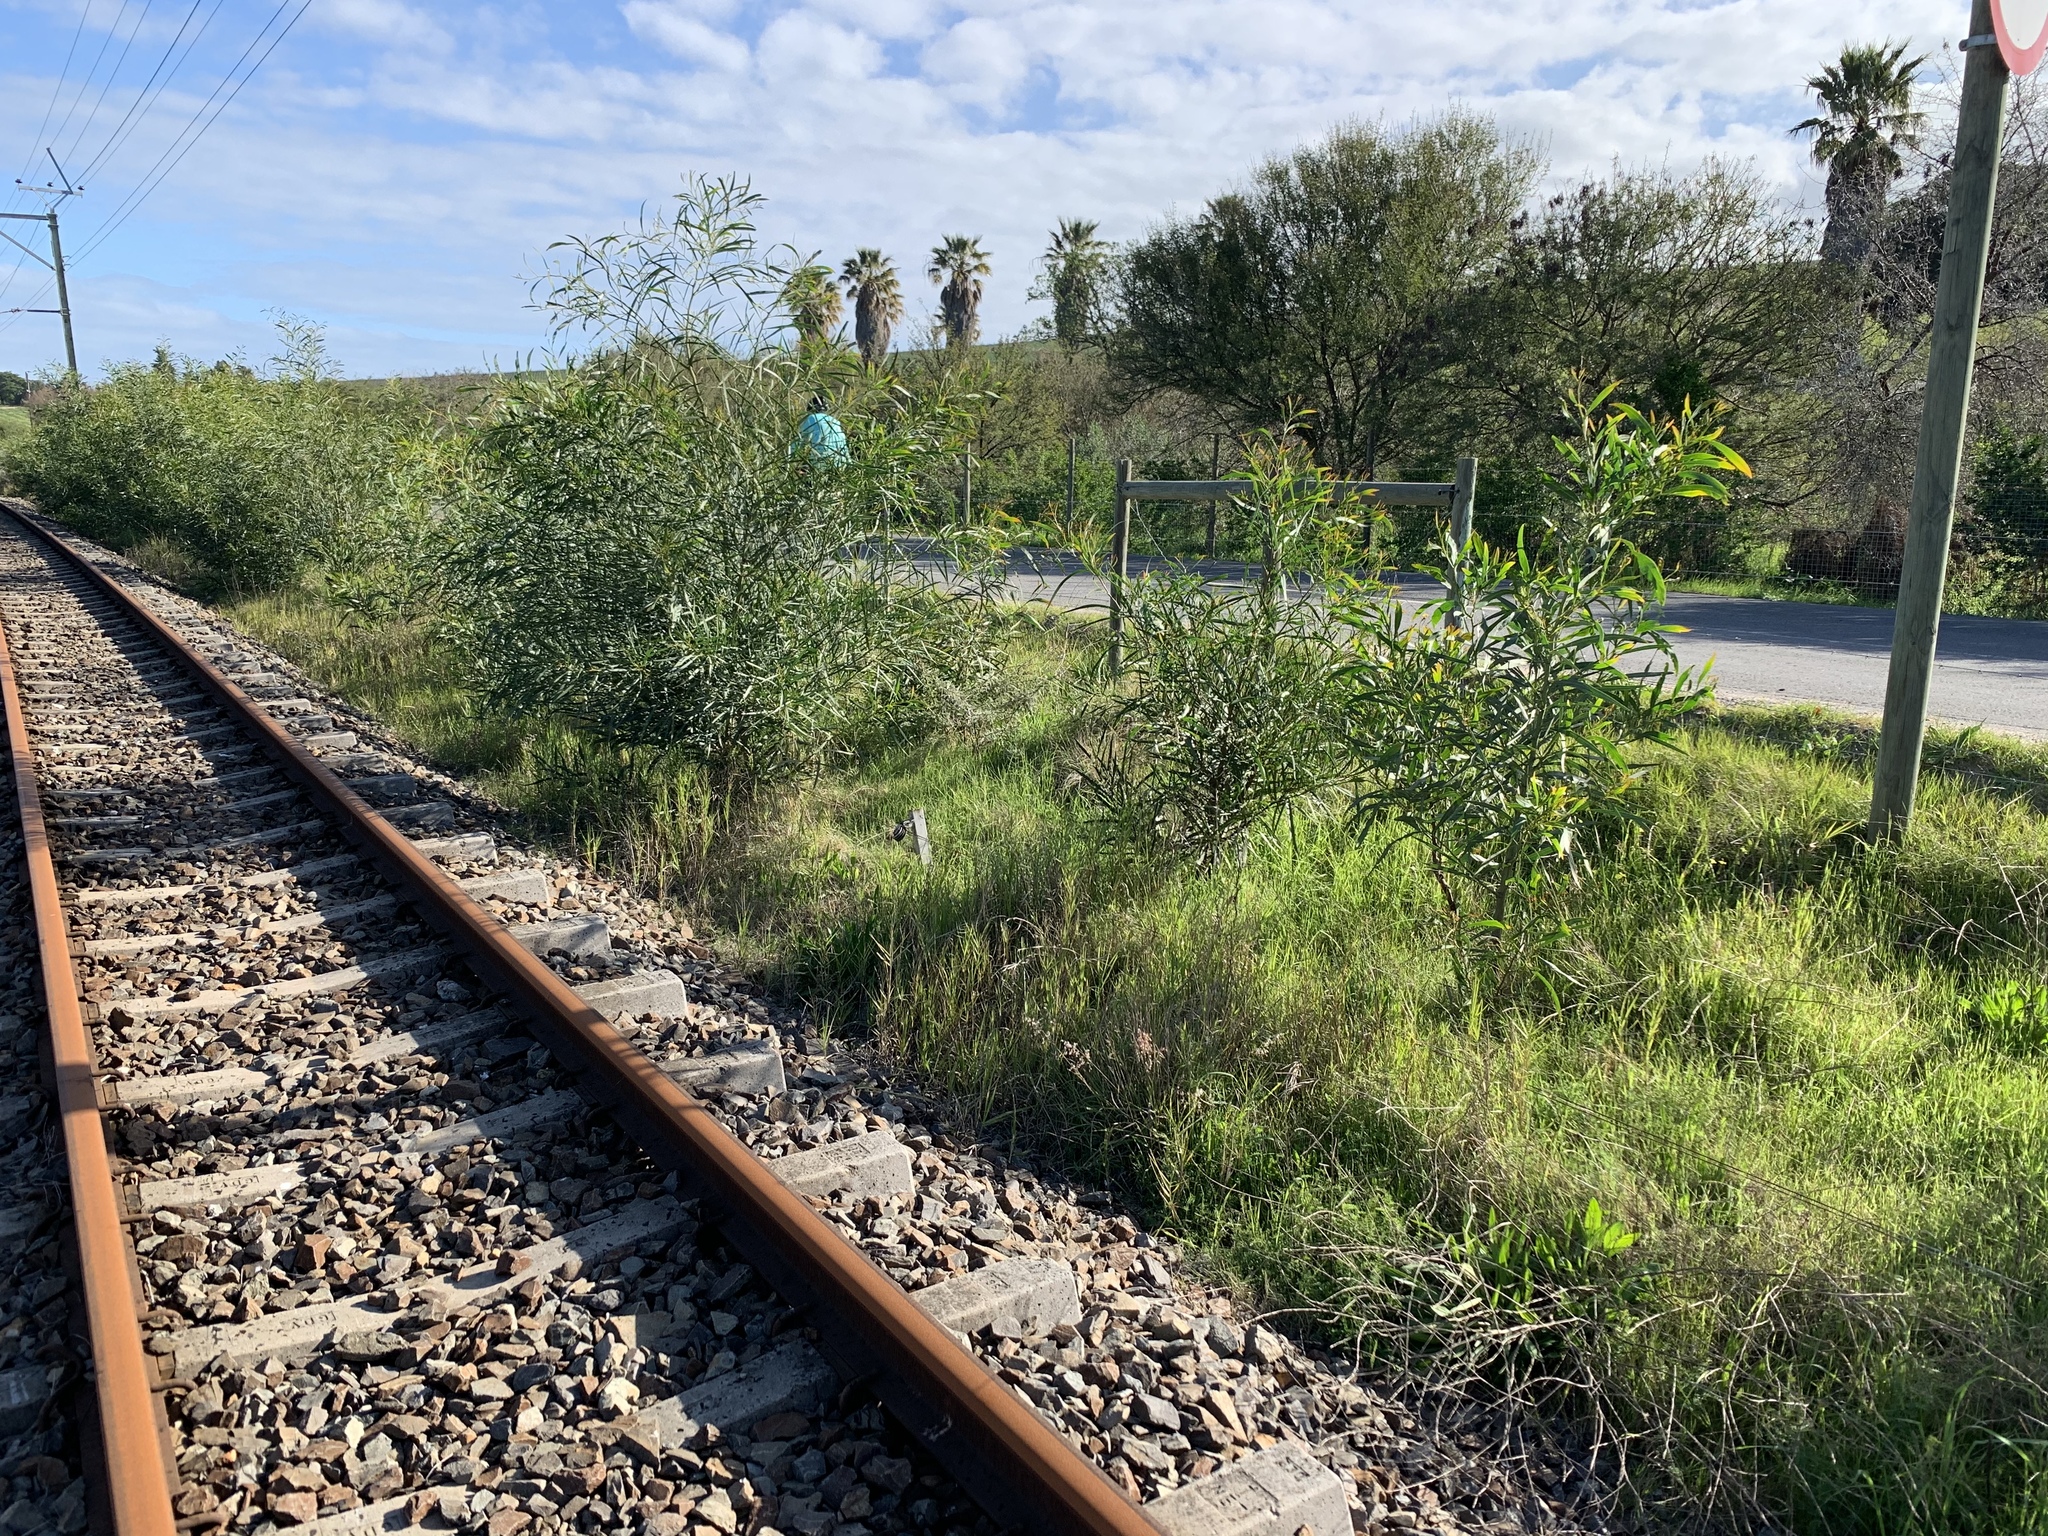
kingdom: Plantae
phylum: Tracheophyta
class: Magnoliopsida
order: Fabales
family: Fabaceae
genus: Acacia
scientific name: Acacia saligna
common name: Orange wattle
